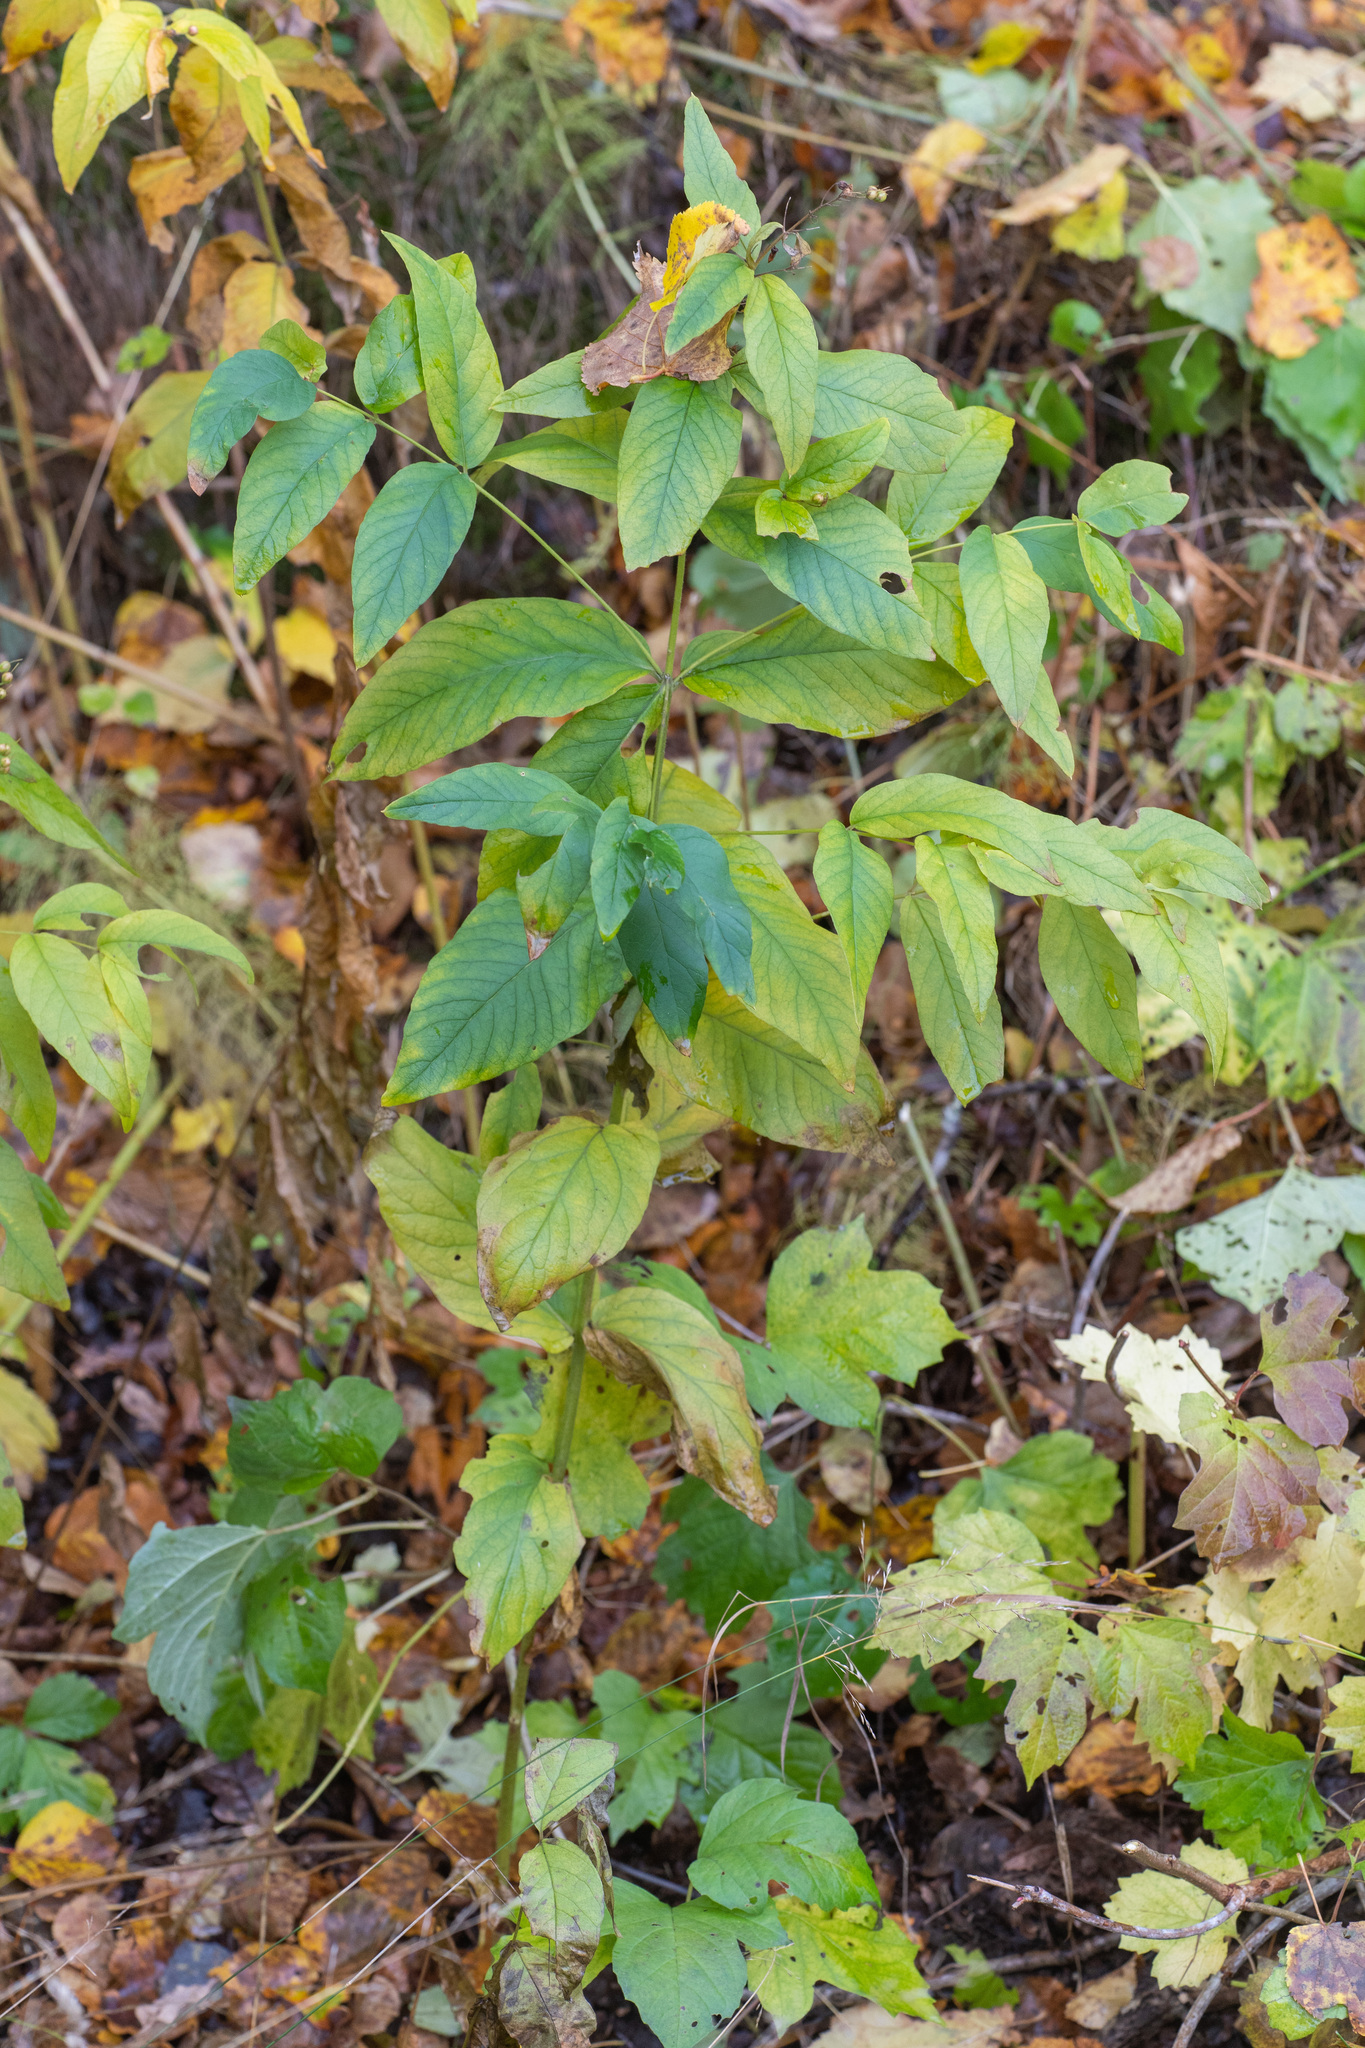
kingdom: Plantae
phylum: Tracheophyta
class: Magnoliopsida
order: Ericales
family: Primulaceae
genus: Lysimachia
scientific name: Lysimachia vulgaris
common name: Yellow loosestrife
